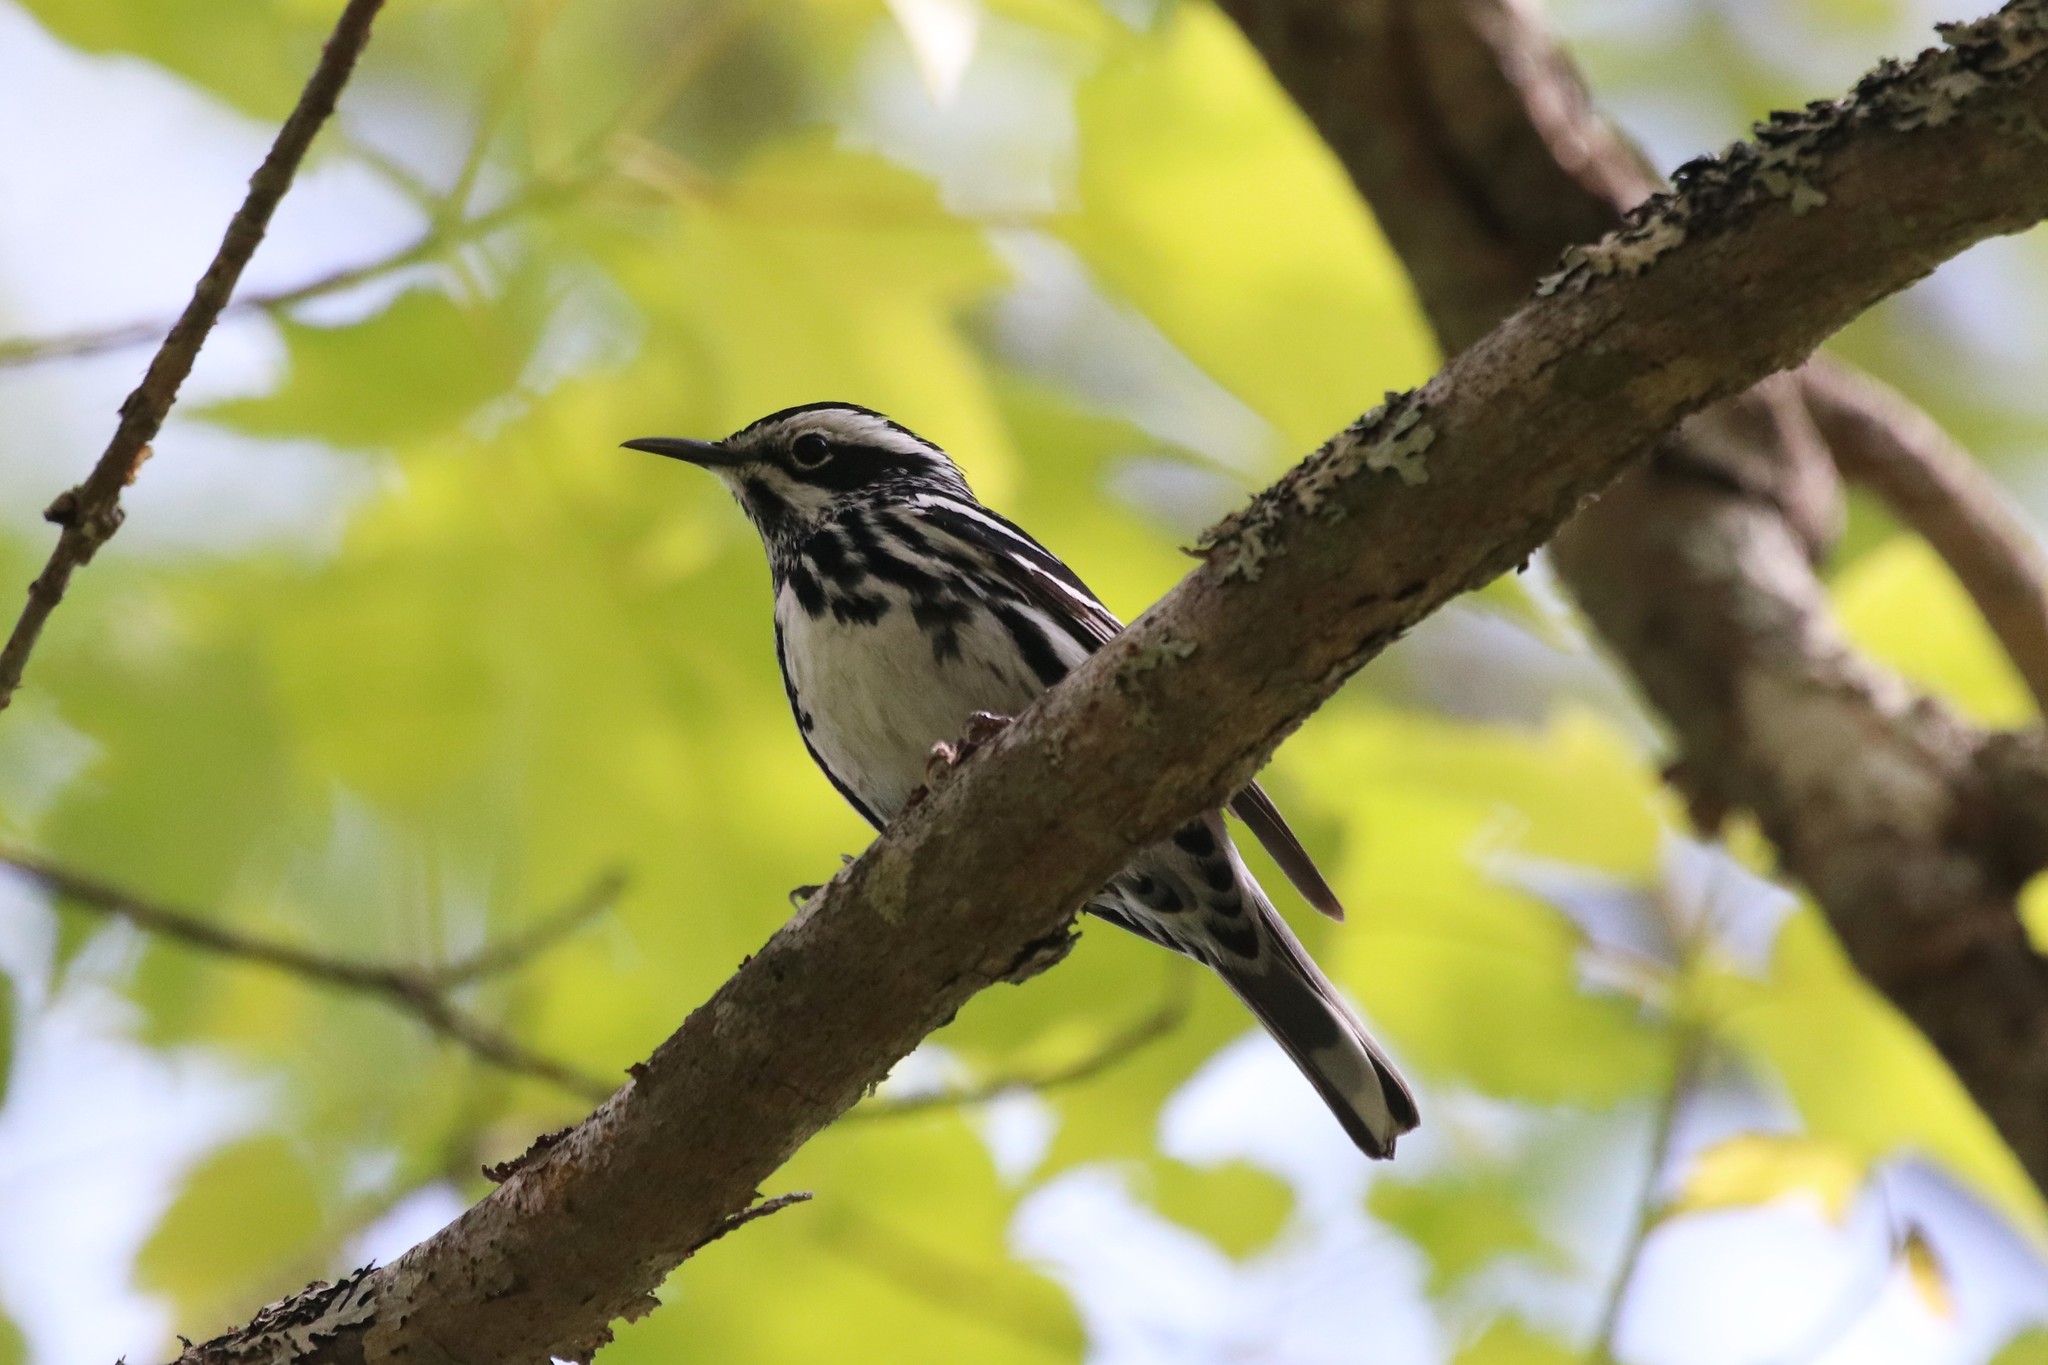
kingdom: Animalia
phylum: Chordata
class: Aves
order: Passeriformes
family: Parulidae
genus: Mniotilta
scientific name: Mniotilta varia
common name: Black-and-white warbler
